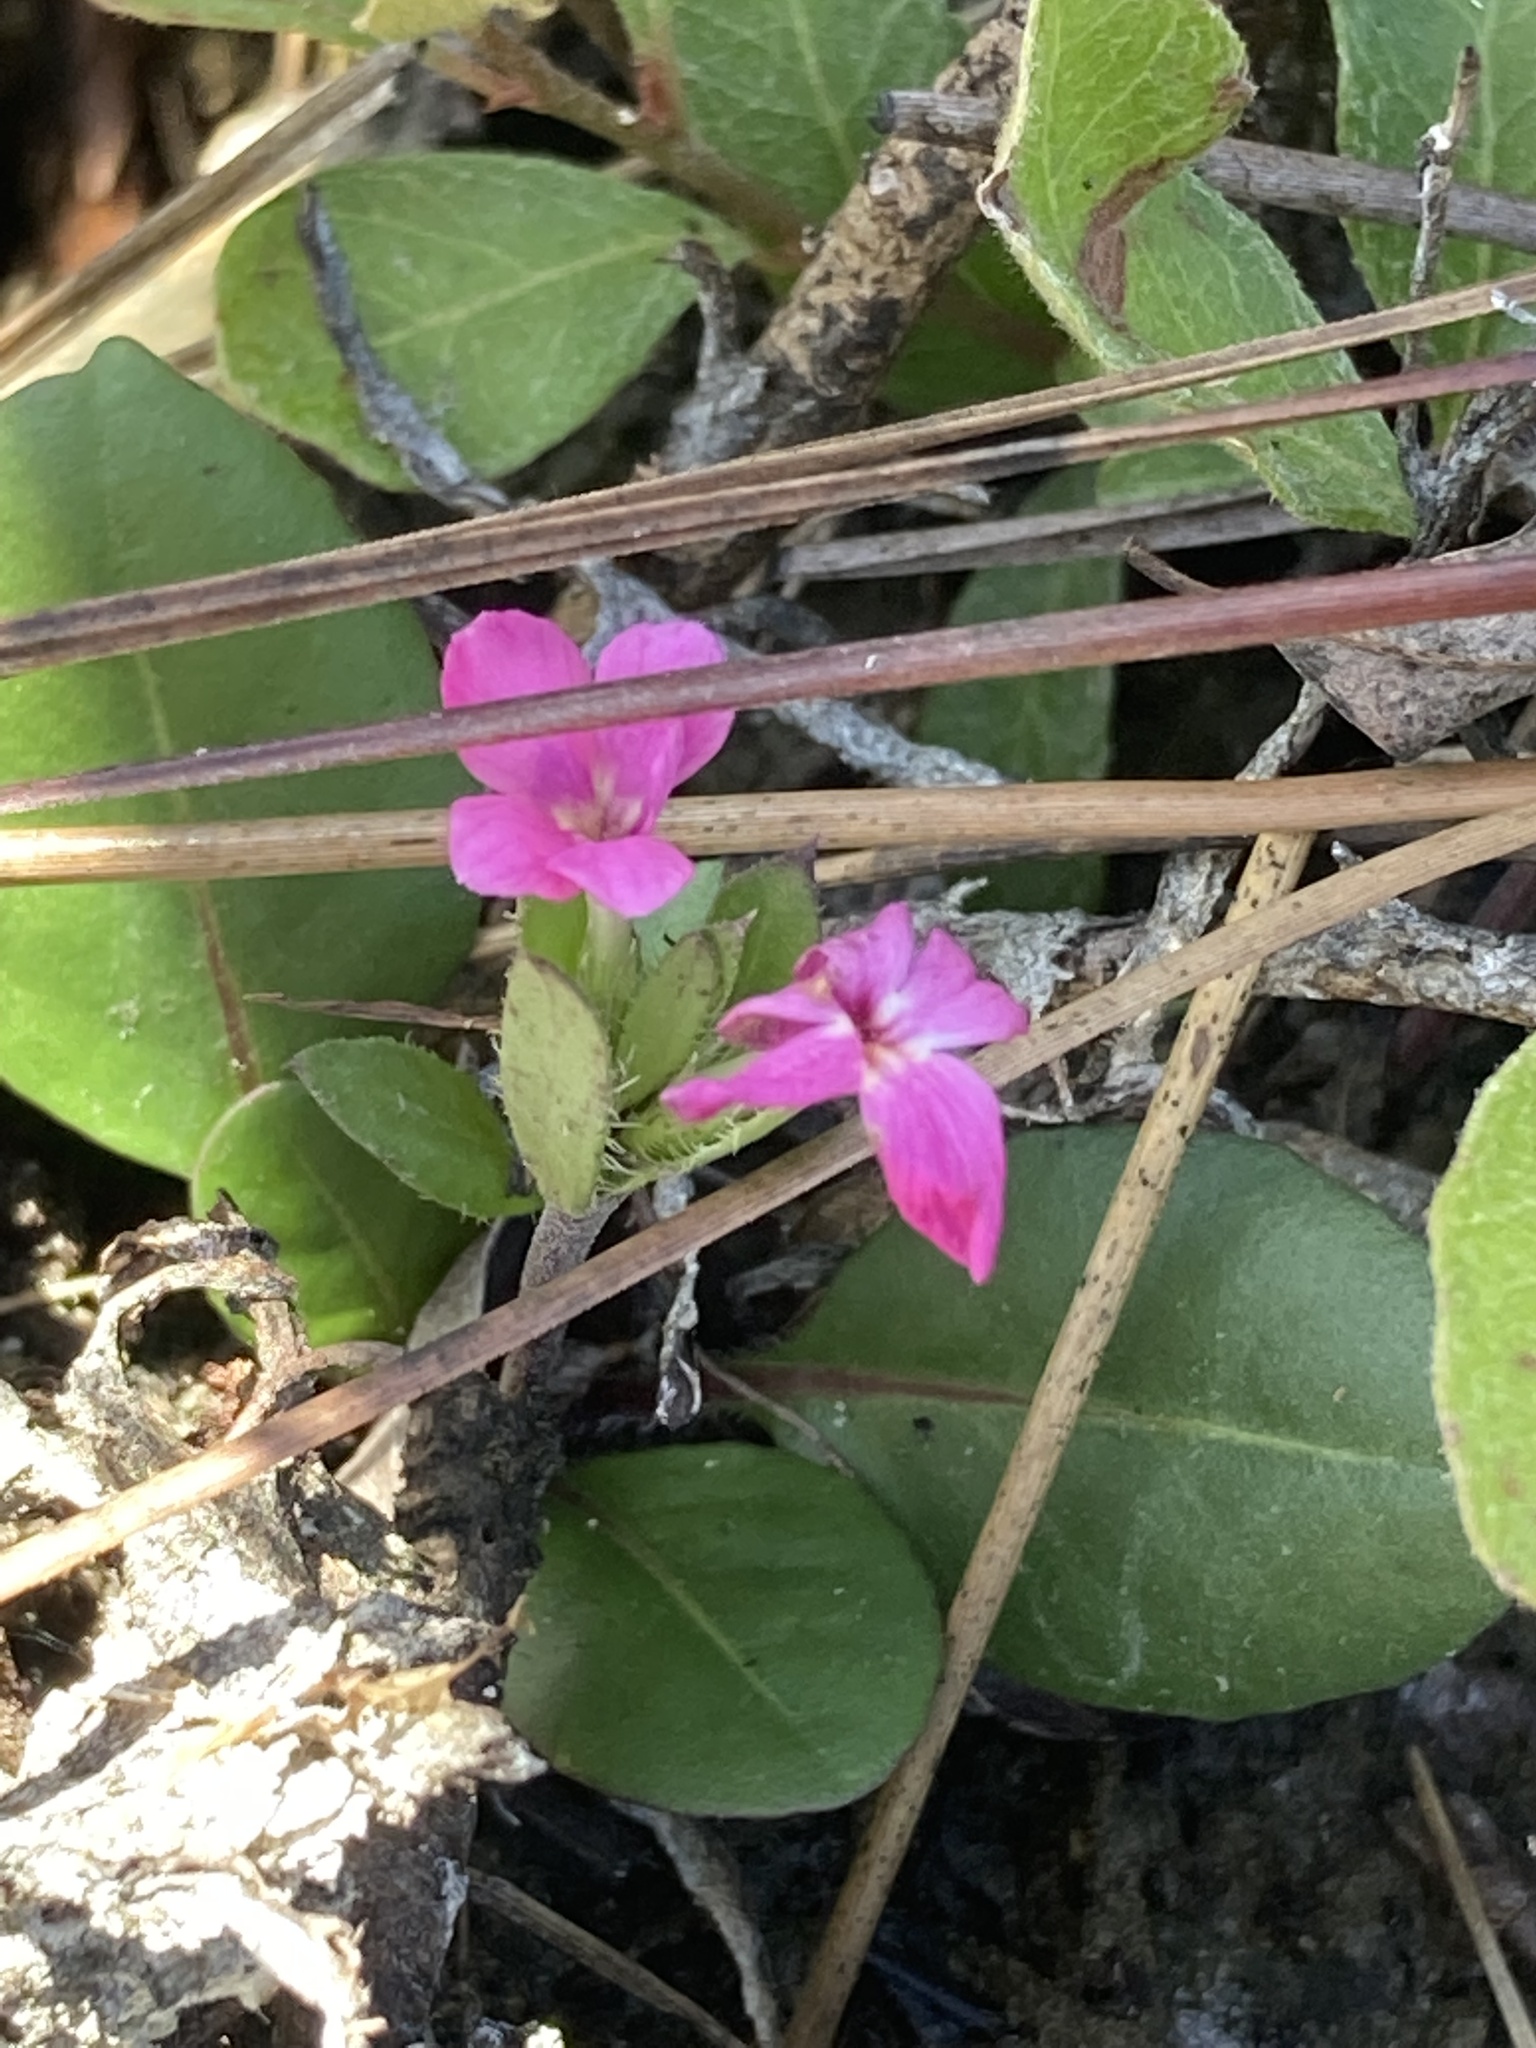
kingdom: Plantae
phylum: Tracheophyta
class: Magnoliopsida
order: Lamiales
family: Acanthaceae
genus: Stenandrium
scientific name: Stenandrium dulce
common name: Pinklet
